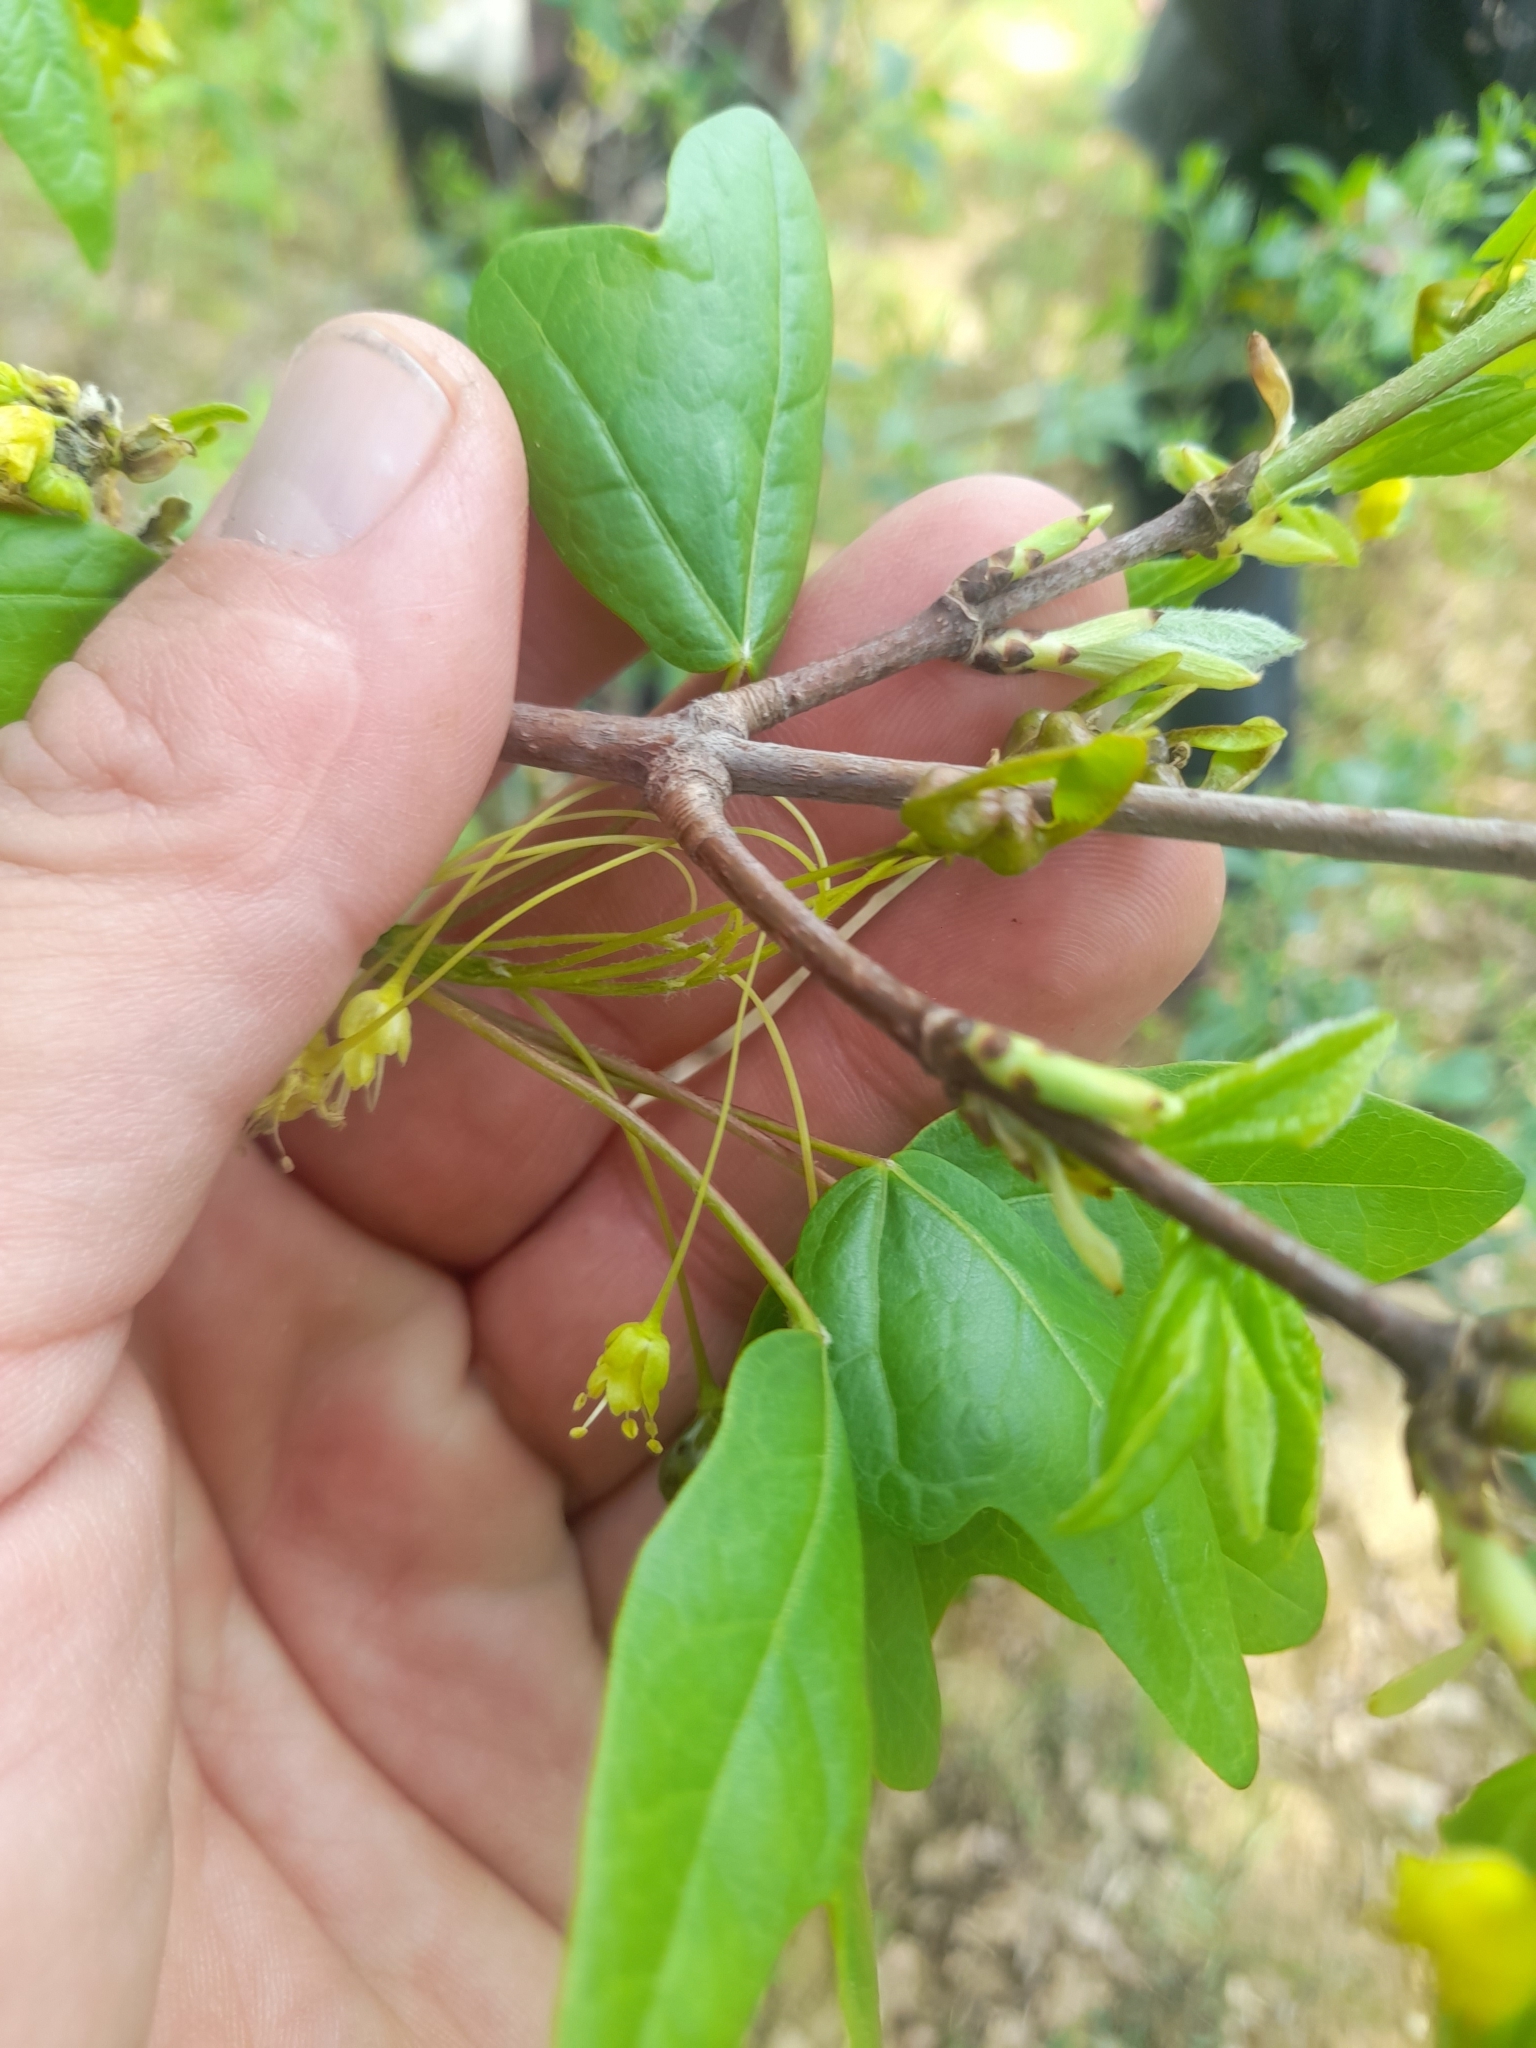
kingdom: Plantae
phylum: Tracheophyta
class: Magnoliopsida
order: Sapindales
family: Sapindaceae
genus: Acer
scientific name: Acer monspessulanum
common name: Montpellier maple
